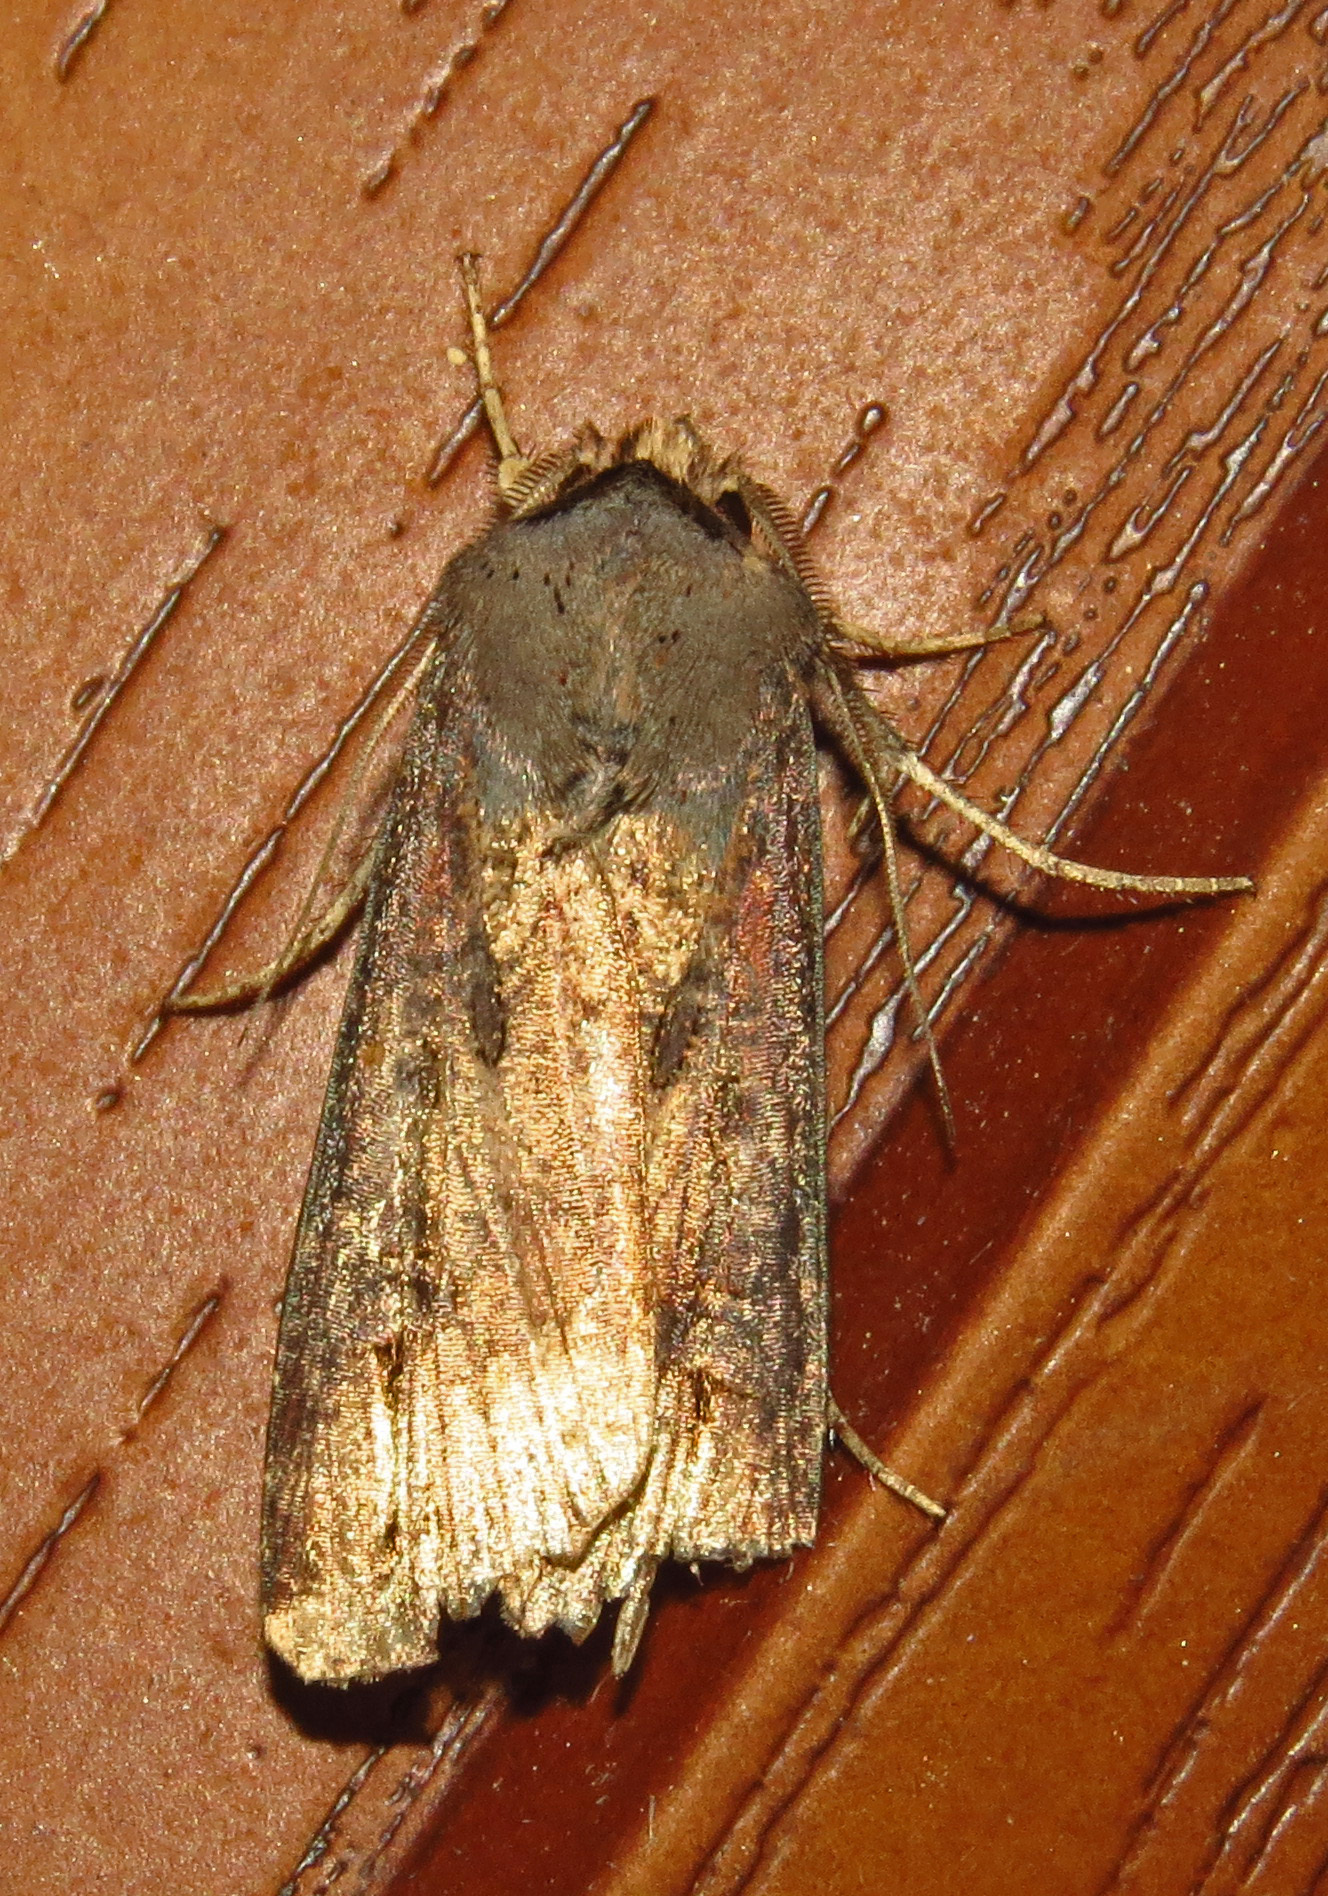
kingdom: Animalia
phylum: Arthropoda
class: Insecta
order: Lepidoptera
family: Noctuidae
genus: Agrotis
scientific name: Agrotis ipsilon
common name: Dark sword-grass
